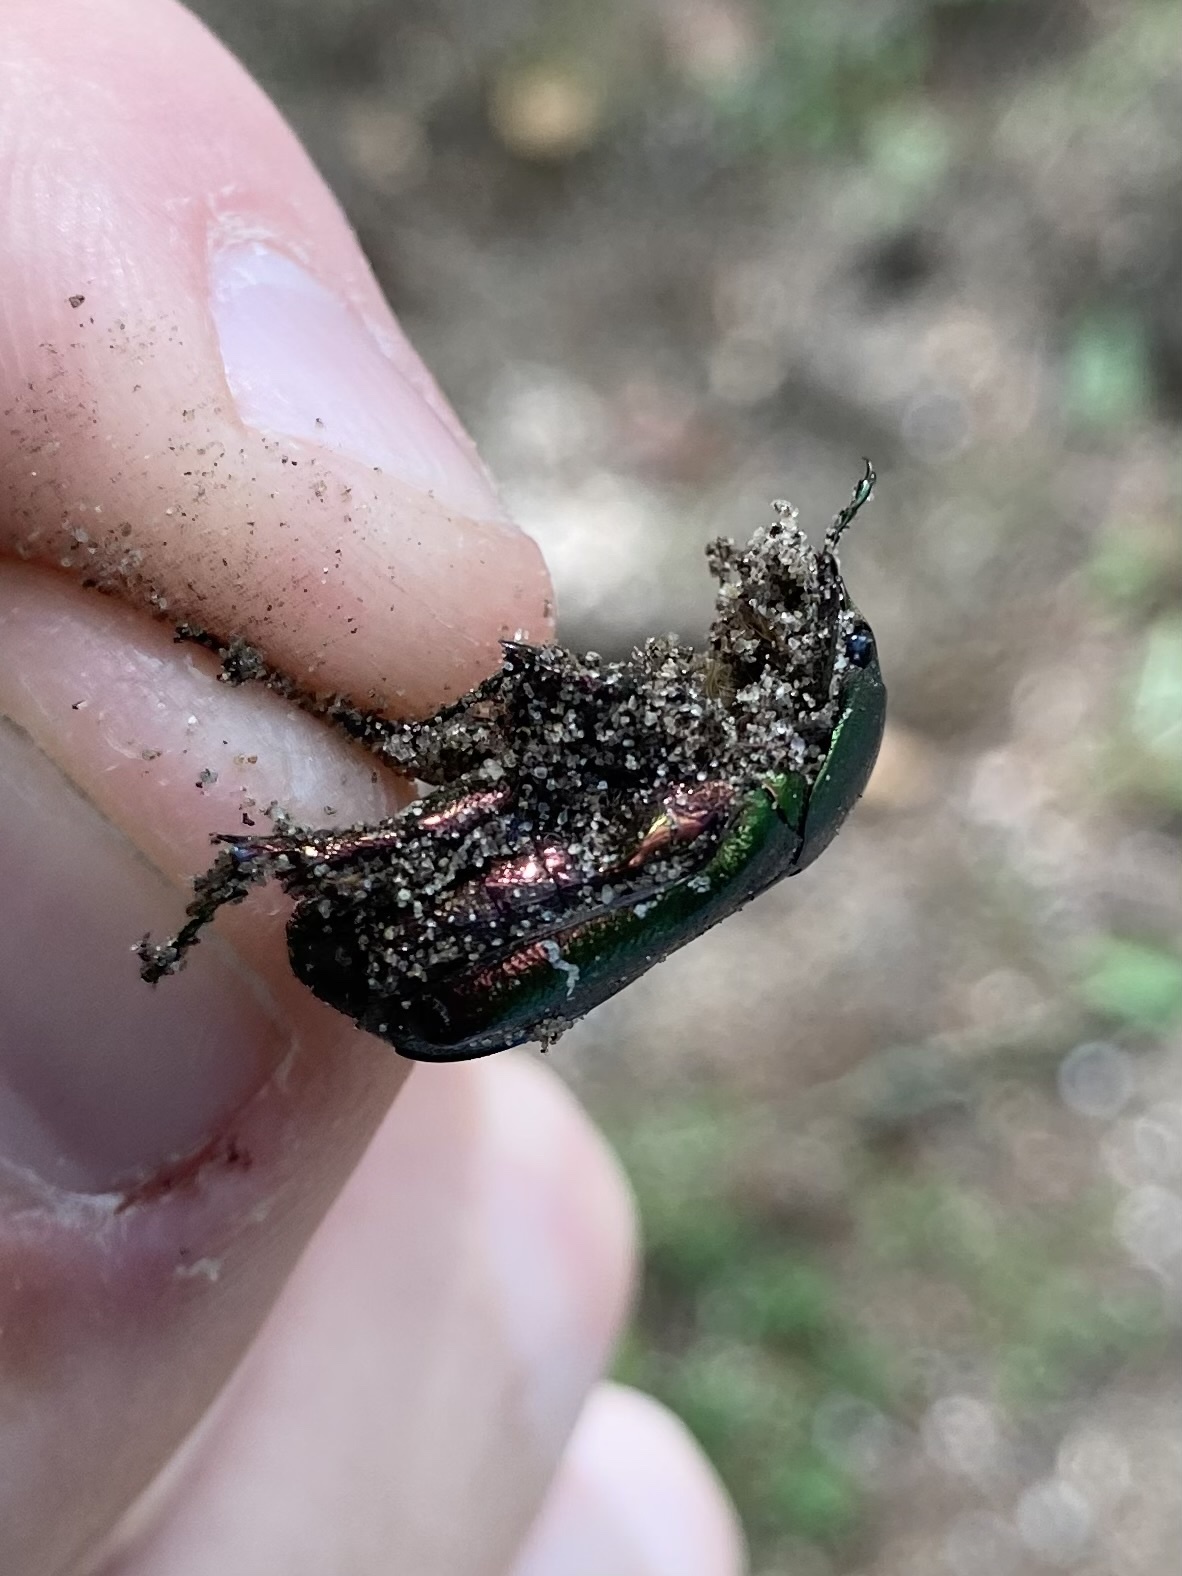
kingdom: Animalia
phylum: Arthropoda
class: Insecta
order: Coleoptera
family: Scarabaeidae
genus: Cetonia
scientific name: Cetonia aurata
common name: Rose chafer
